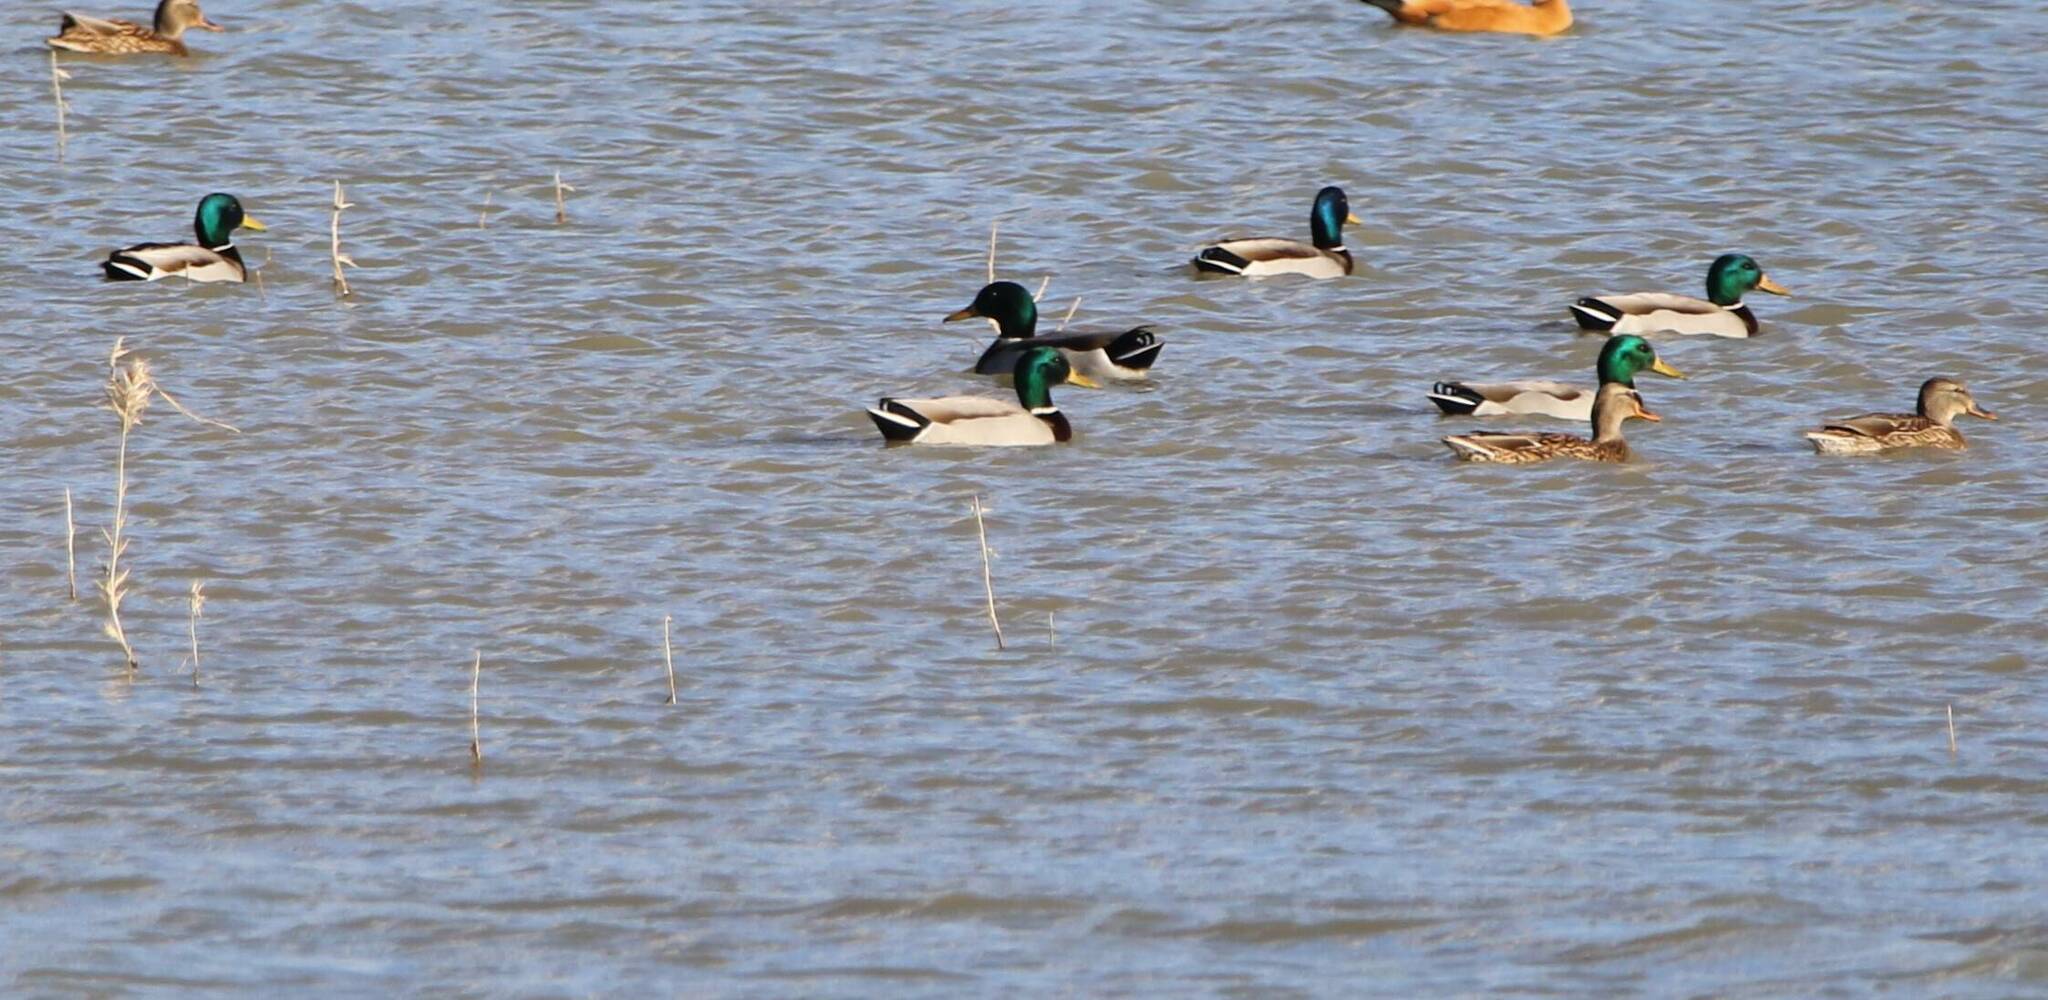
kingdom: Animalia
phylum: Chordata
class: Aves
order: Anseriformes
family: Anatidae
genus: Anas
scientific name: Anas platyrhynchos
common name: Mallard
